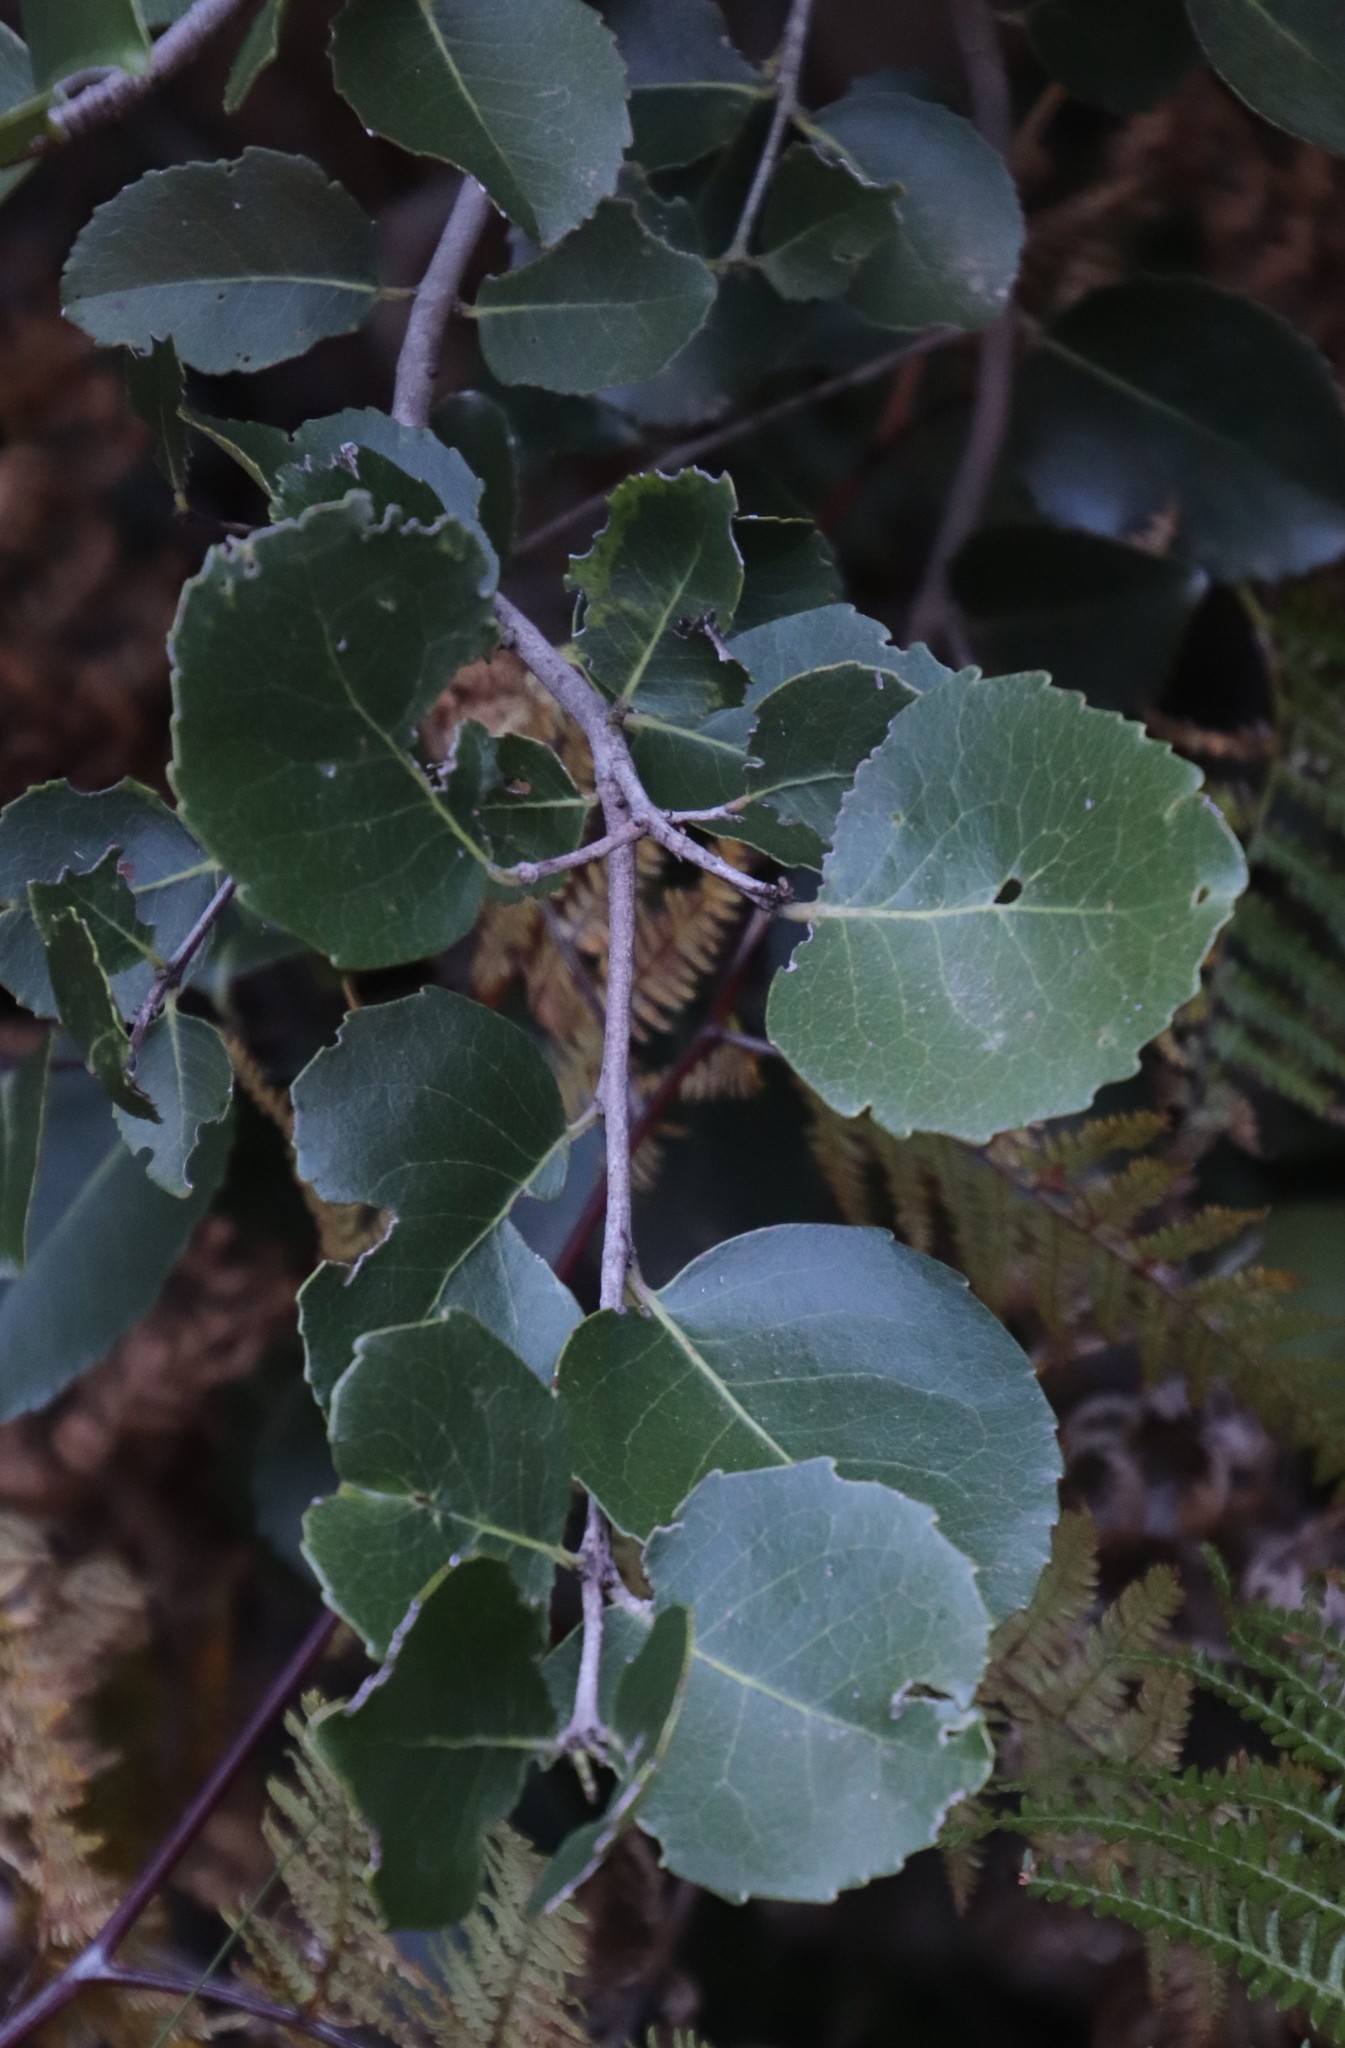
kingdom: Plantae
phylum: Tracheophyta
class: Magnoliopsida
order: Celastrales
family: Celastraceae
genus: Cassine
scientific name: Cassine peragua
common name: Cape saffron
